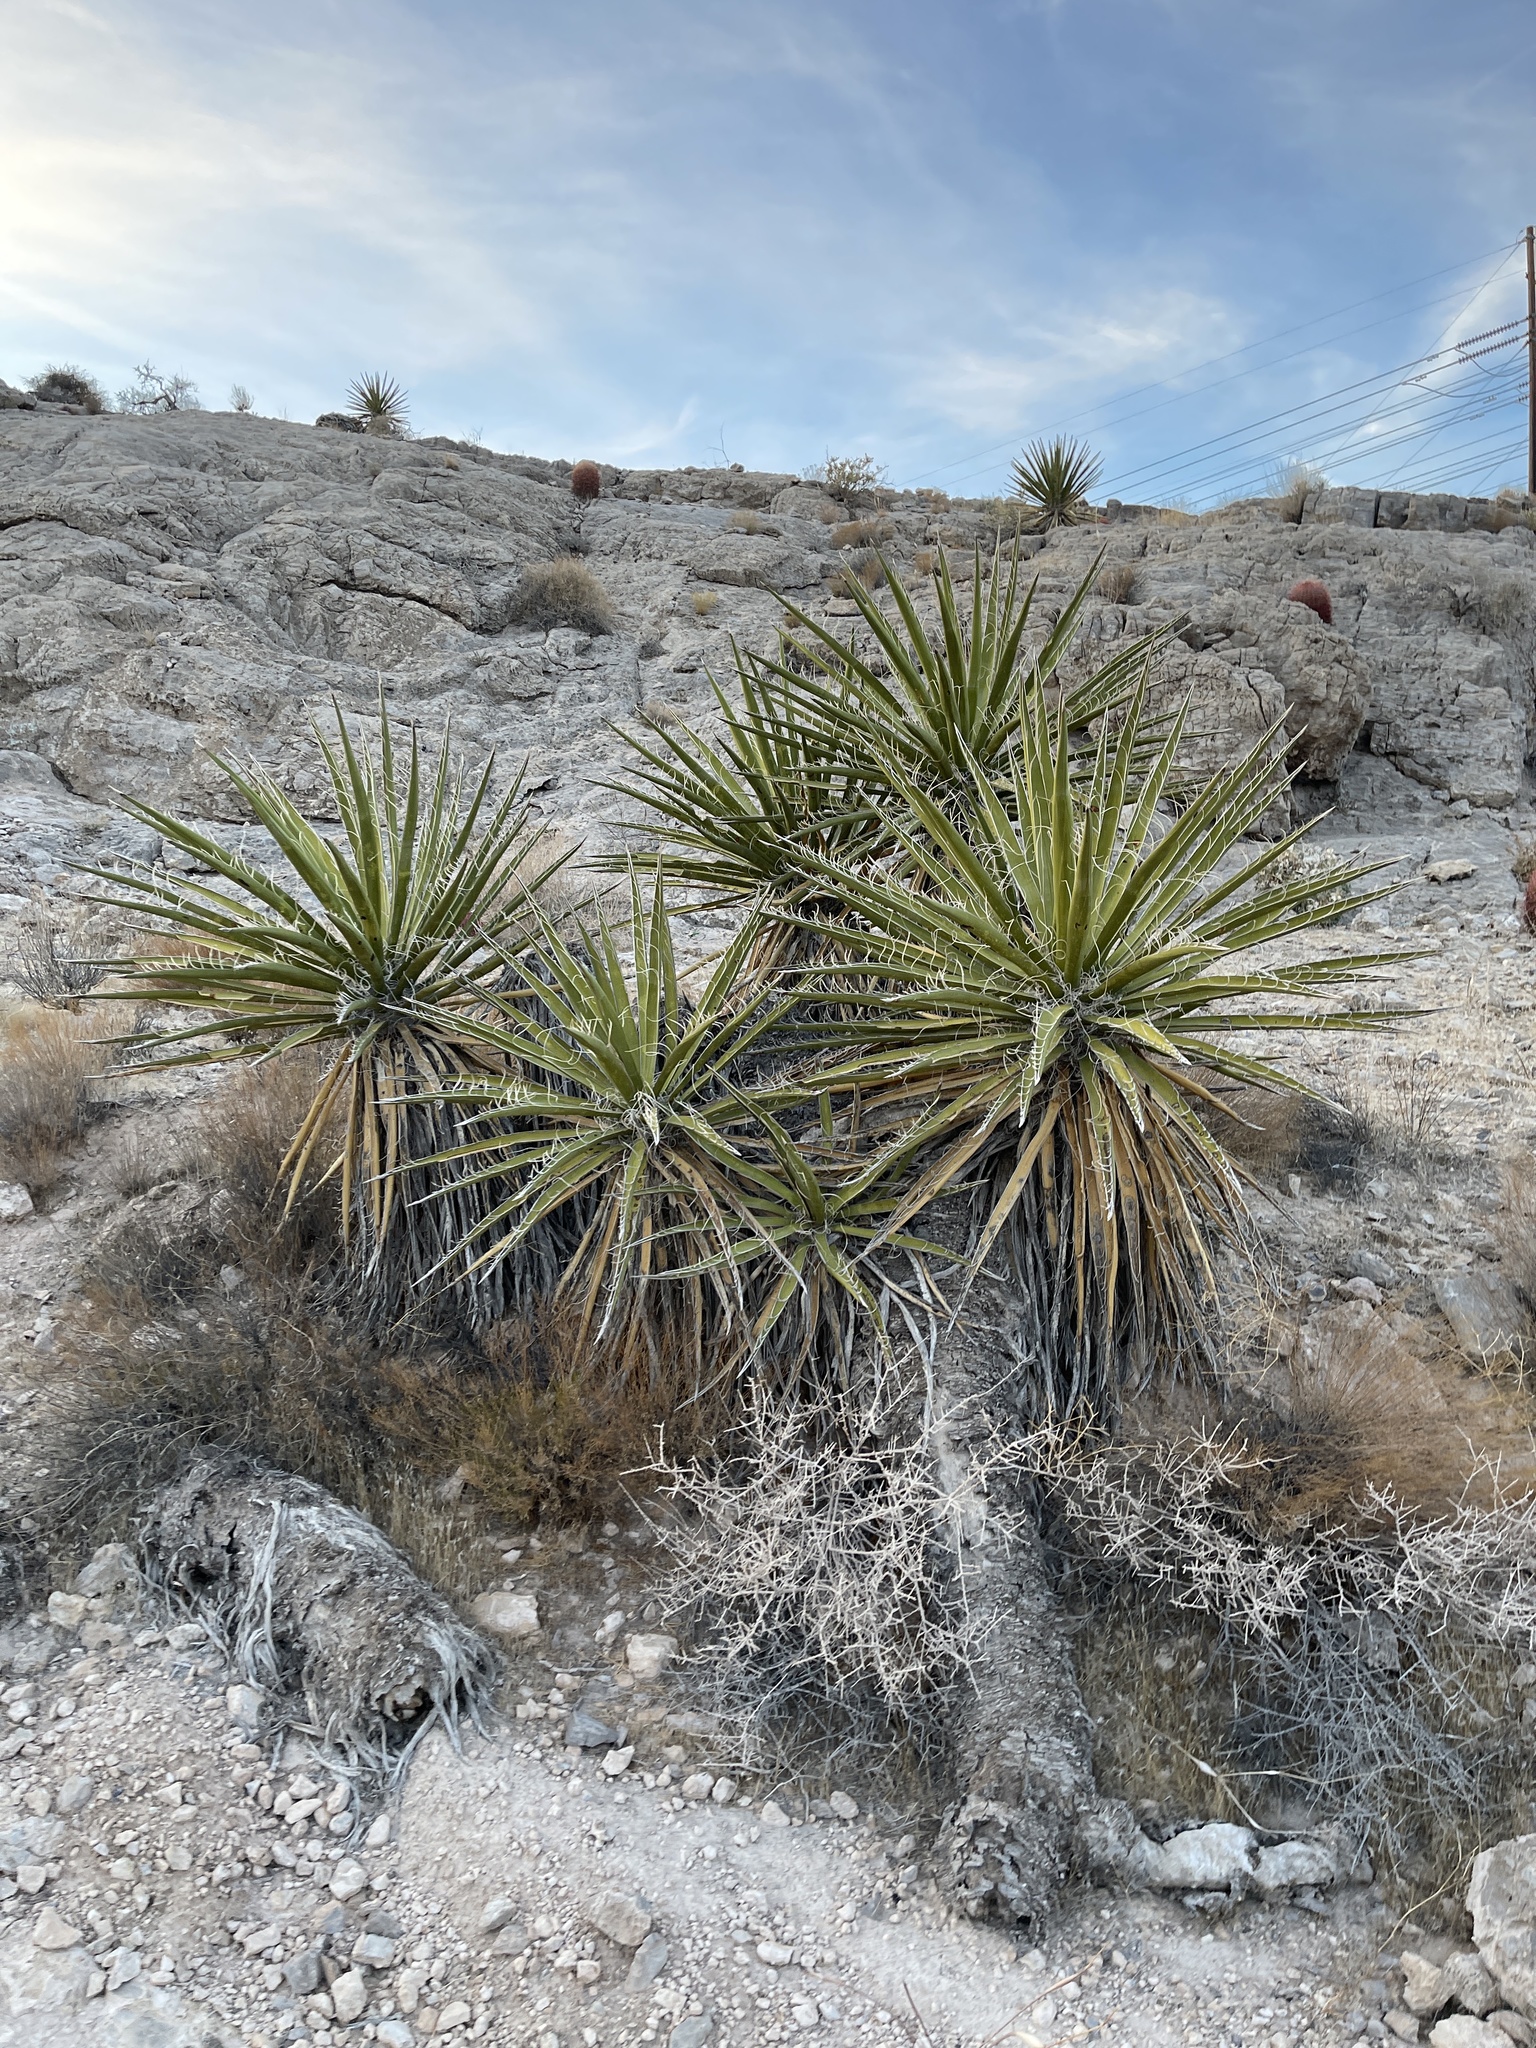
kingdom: Plantae
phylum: Tracheophyta
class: Liliopsida
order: Asparagales
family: Asparagaceae
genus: Yucca
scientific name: Yucca schidigera
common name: Mojave yucca
